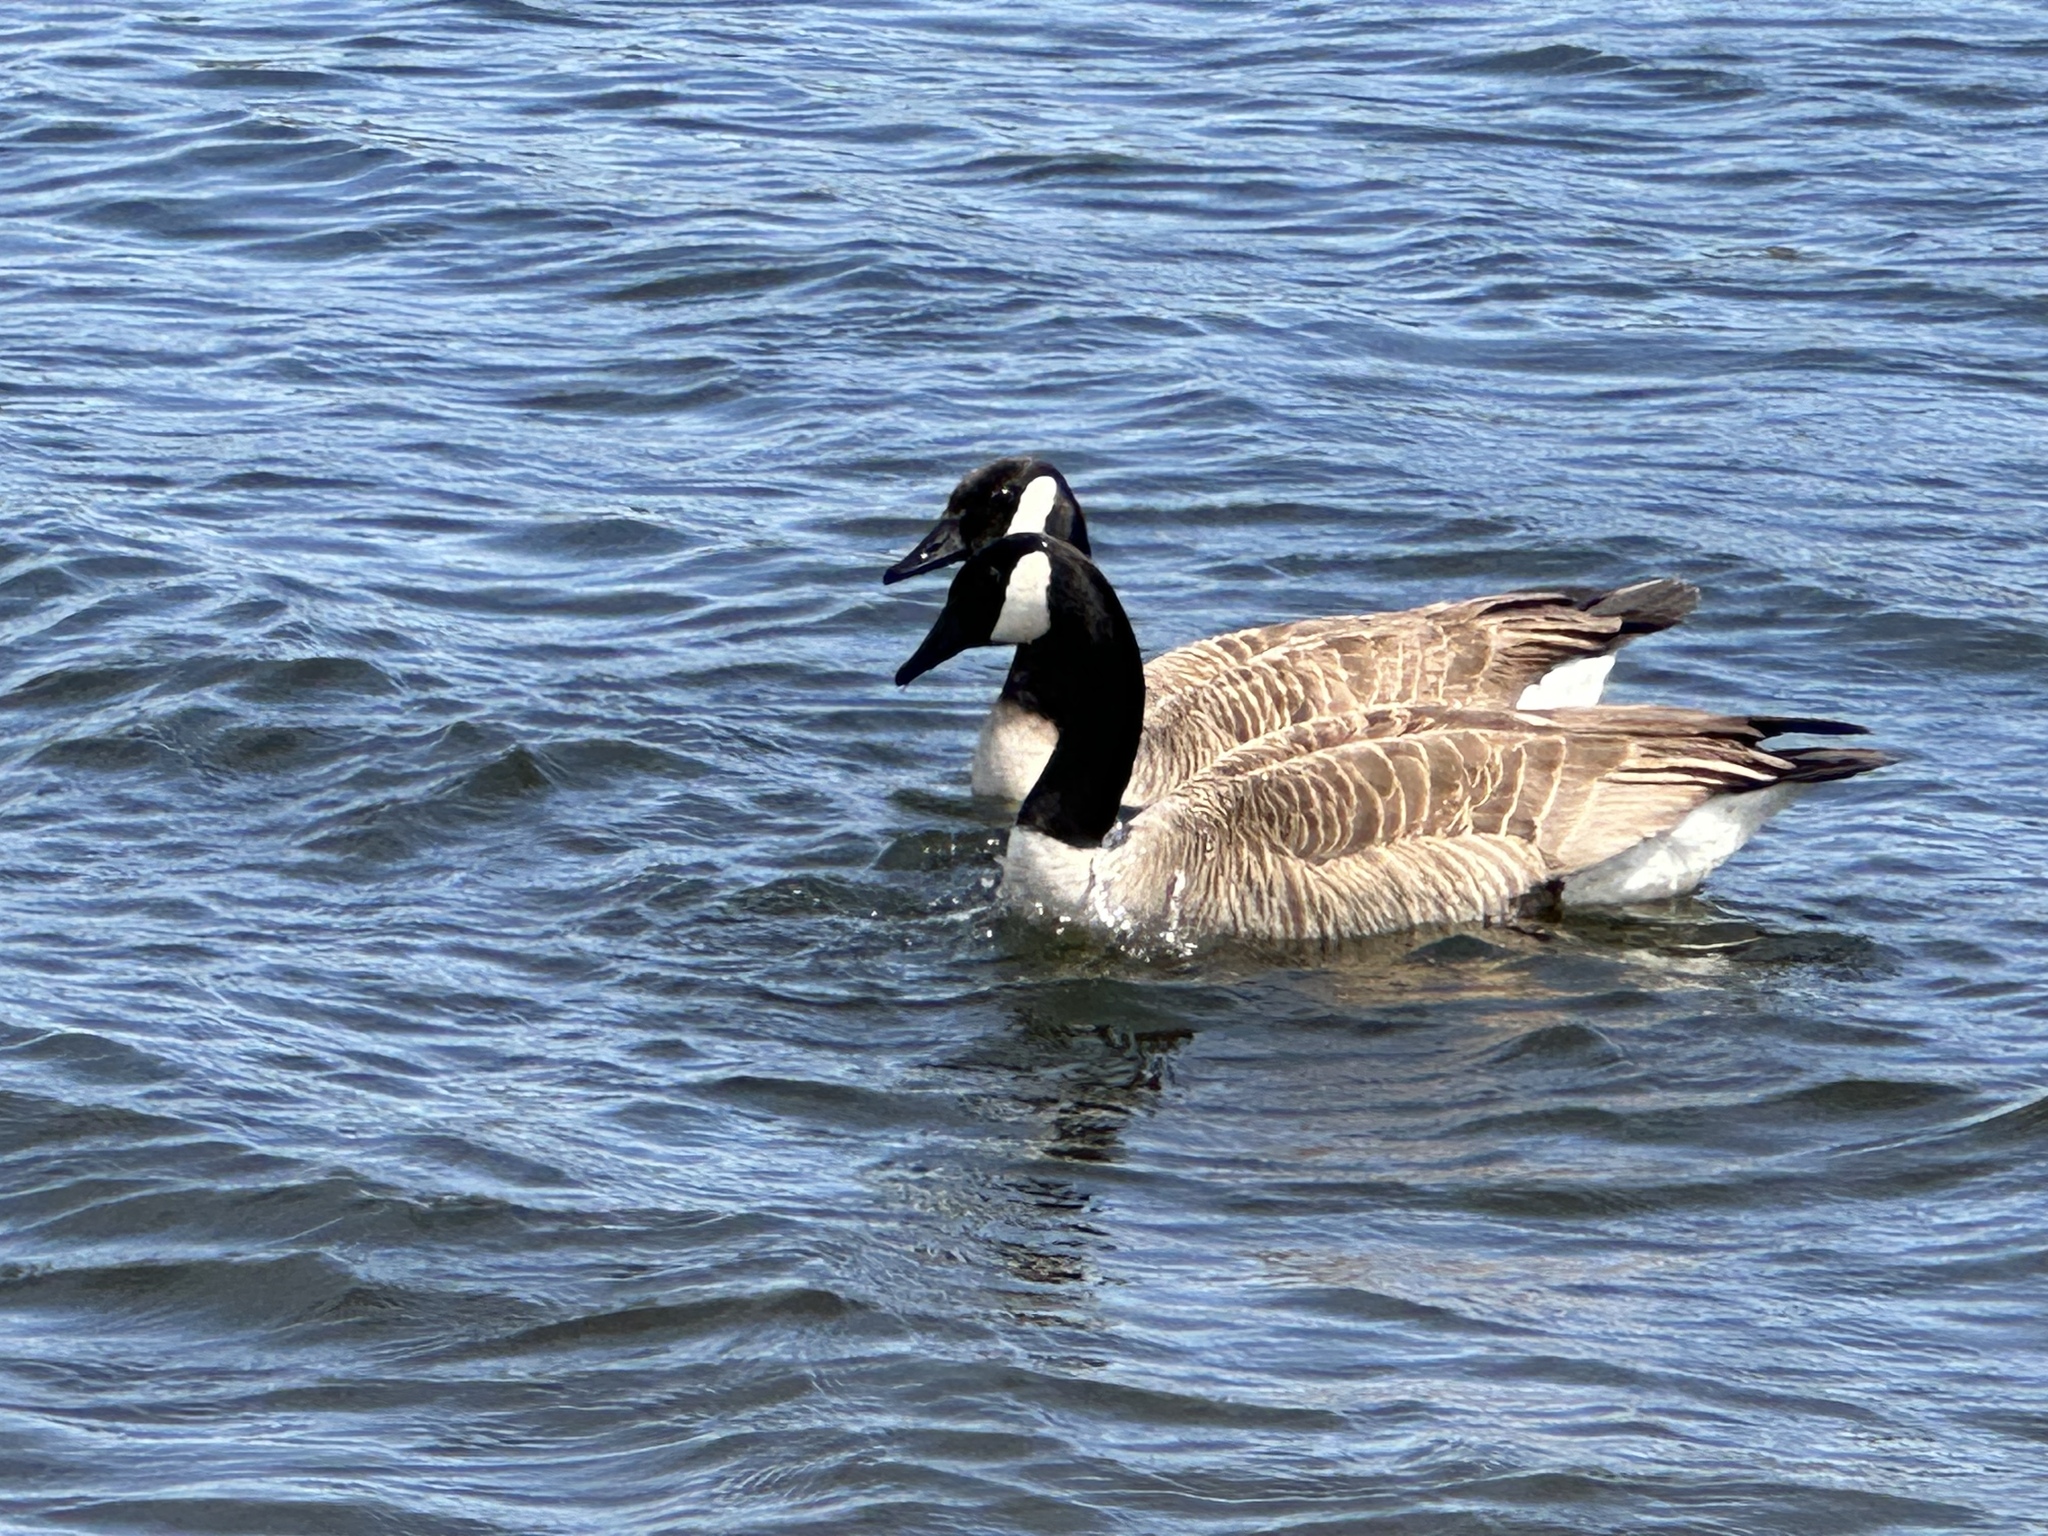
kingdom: Animalia
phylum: Chordata
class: Aves
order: Anseriformes
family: Anatidae
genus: Branta
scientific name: Branta canadensis
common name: Canada goose
